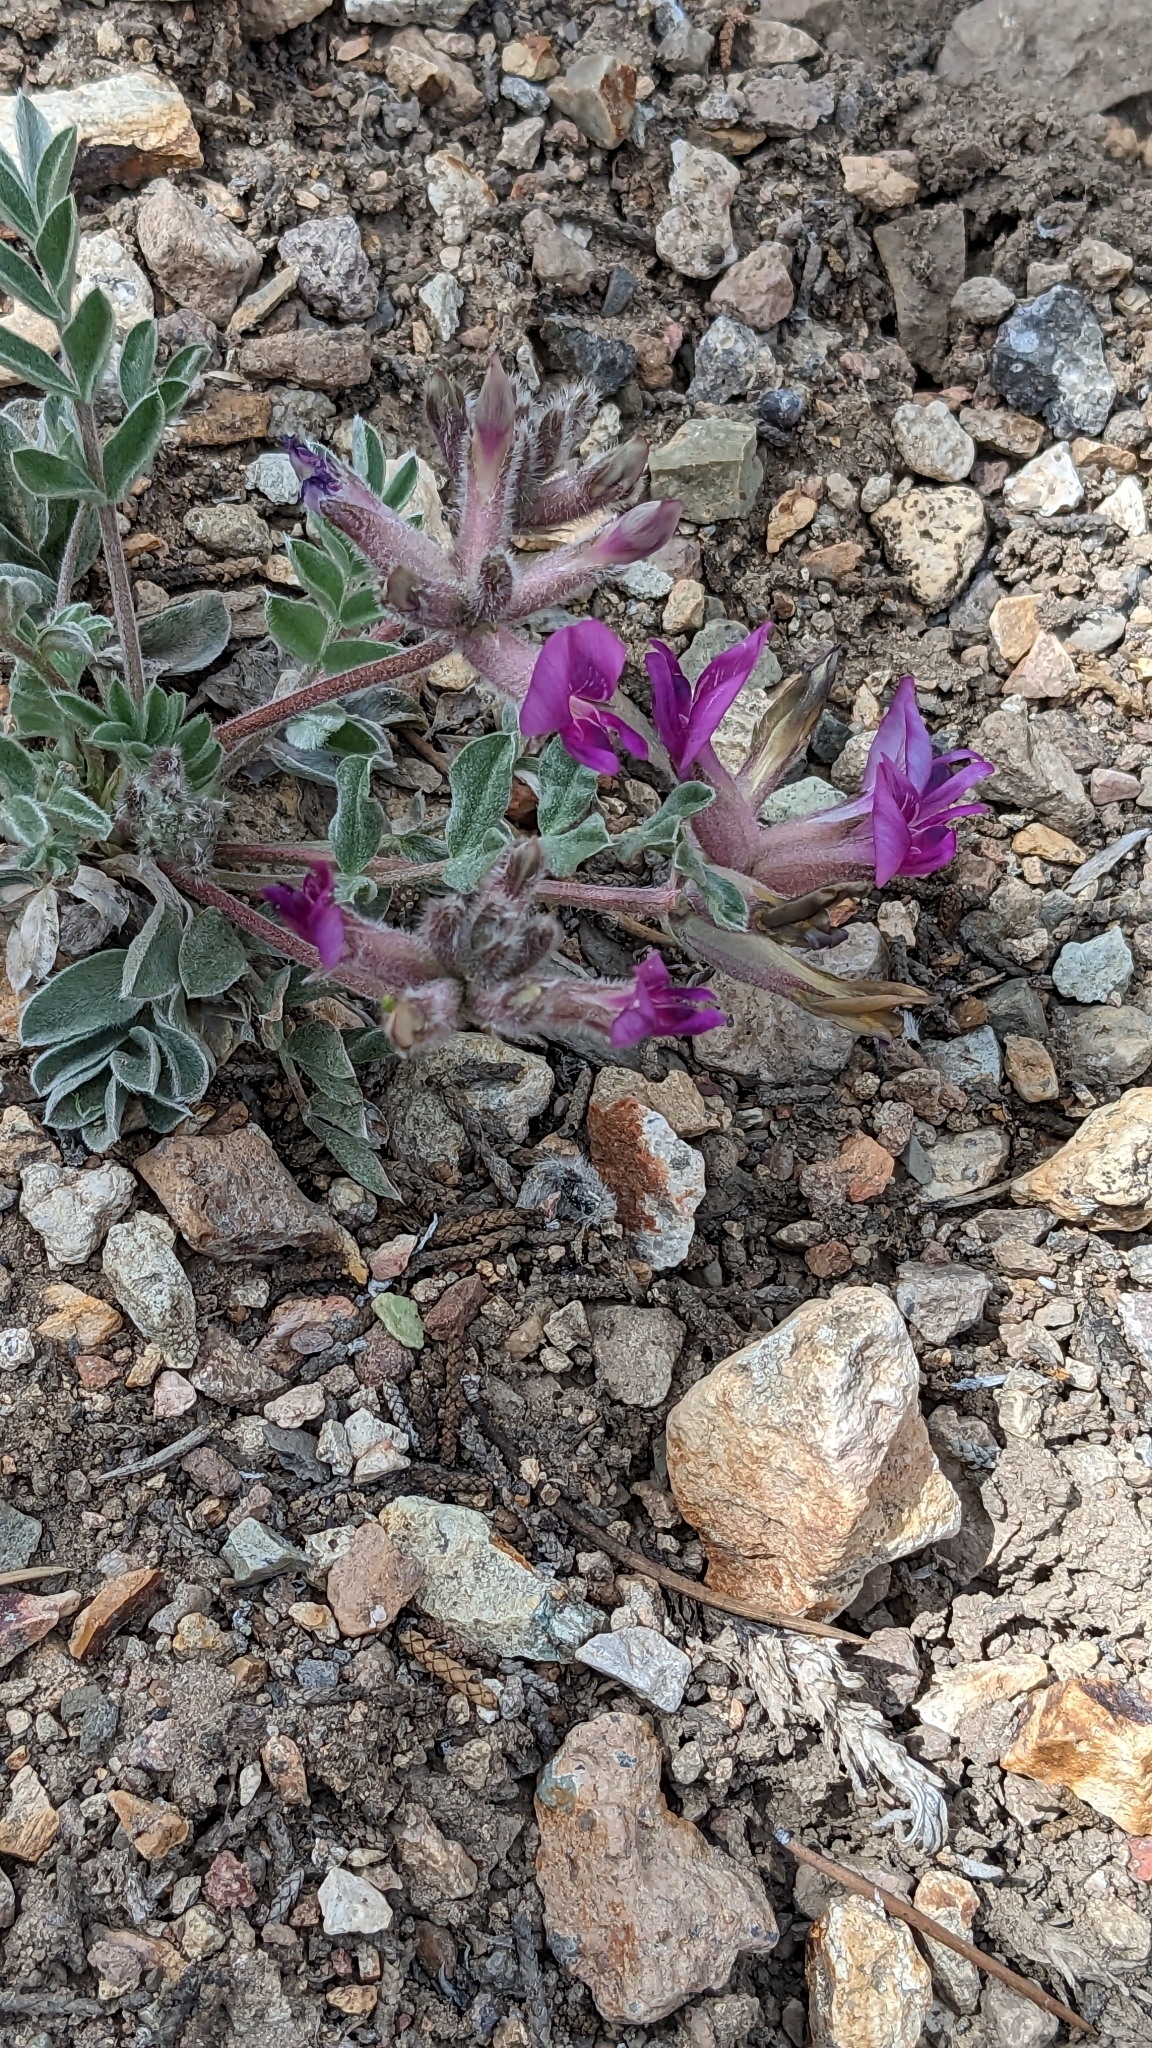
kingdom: Plantae
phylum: Tracheophyta
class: Magnoliopsida
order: Fabales
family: Fabaceae
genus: Astragalus
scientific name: Astragalus newberryi
